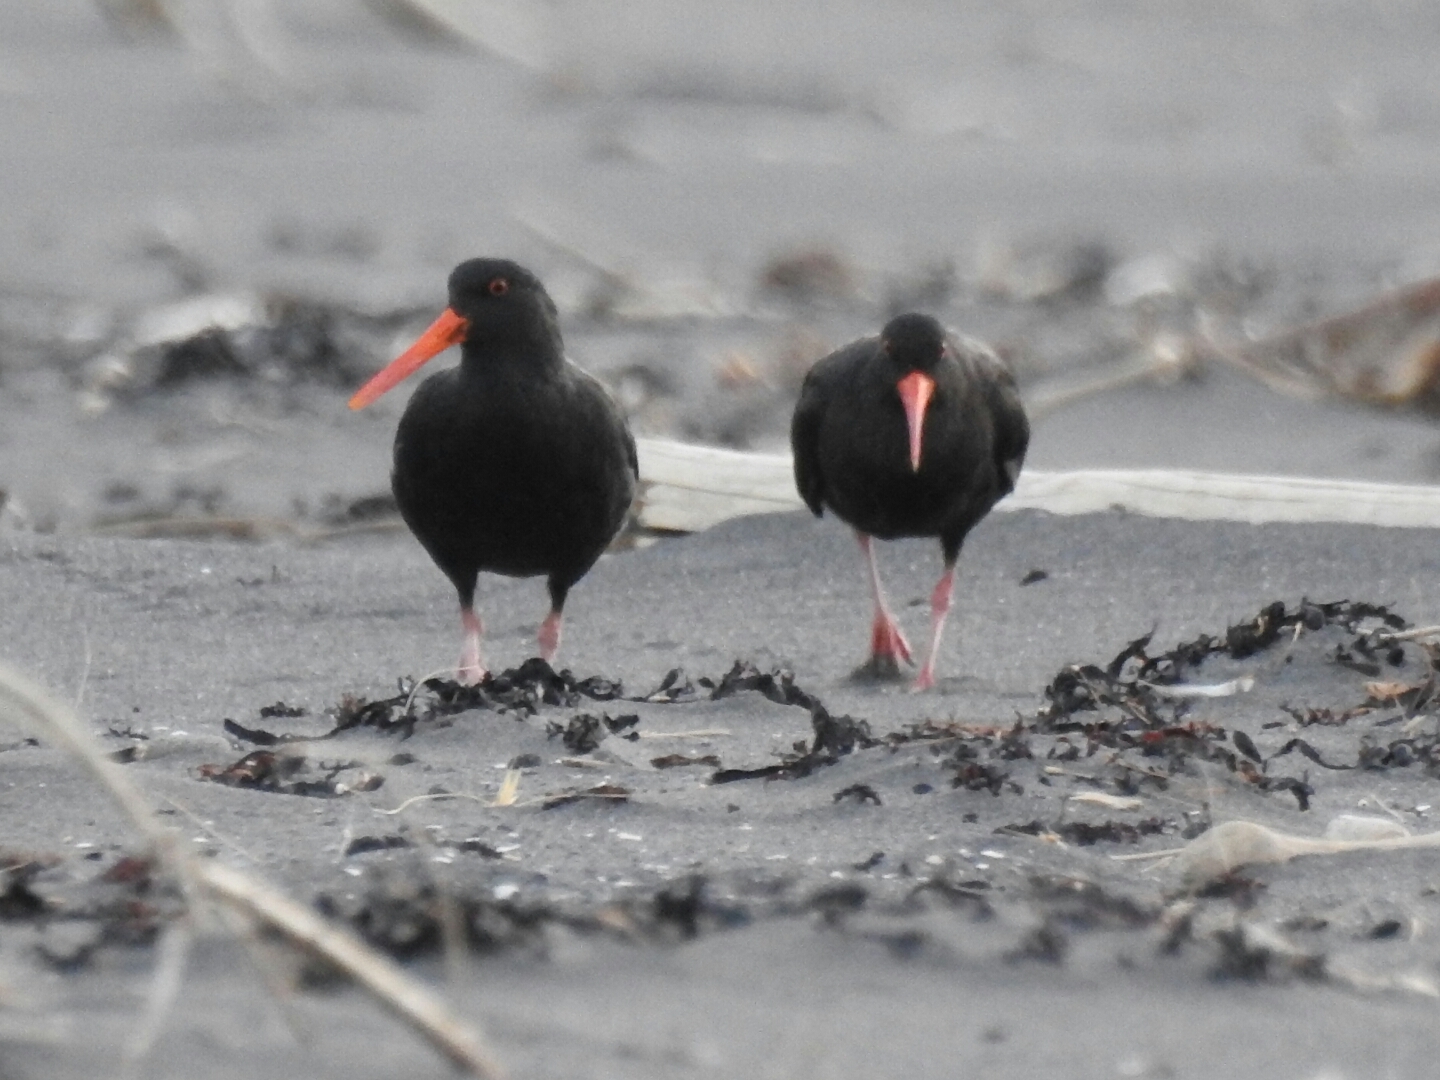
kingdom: Animalia
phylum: Chordata
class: Aves
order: Charadriiformes
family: Haematopodidae
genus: Haematopus
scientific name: Haematopus unicolor
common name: Variable oystercatcher
